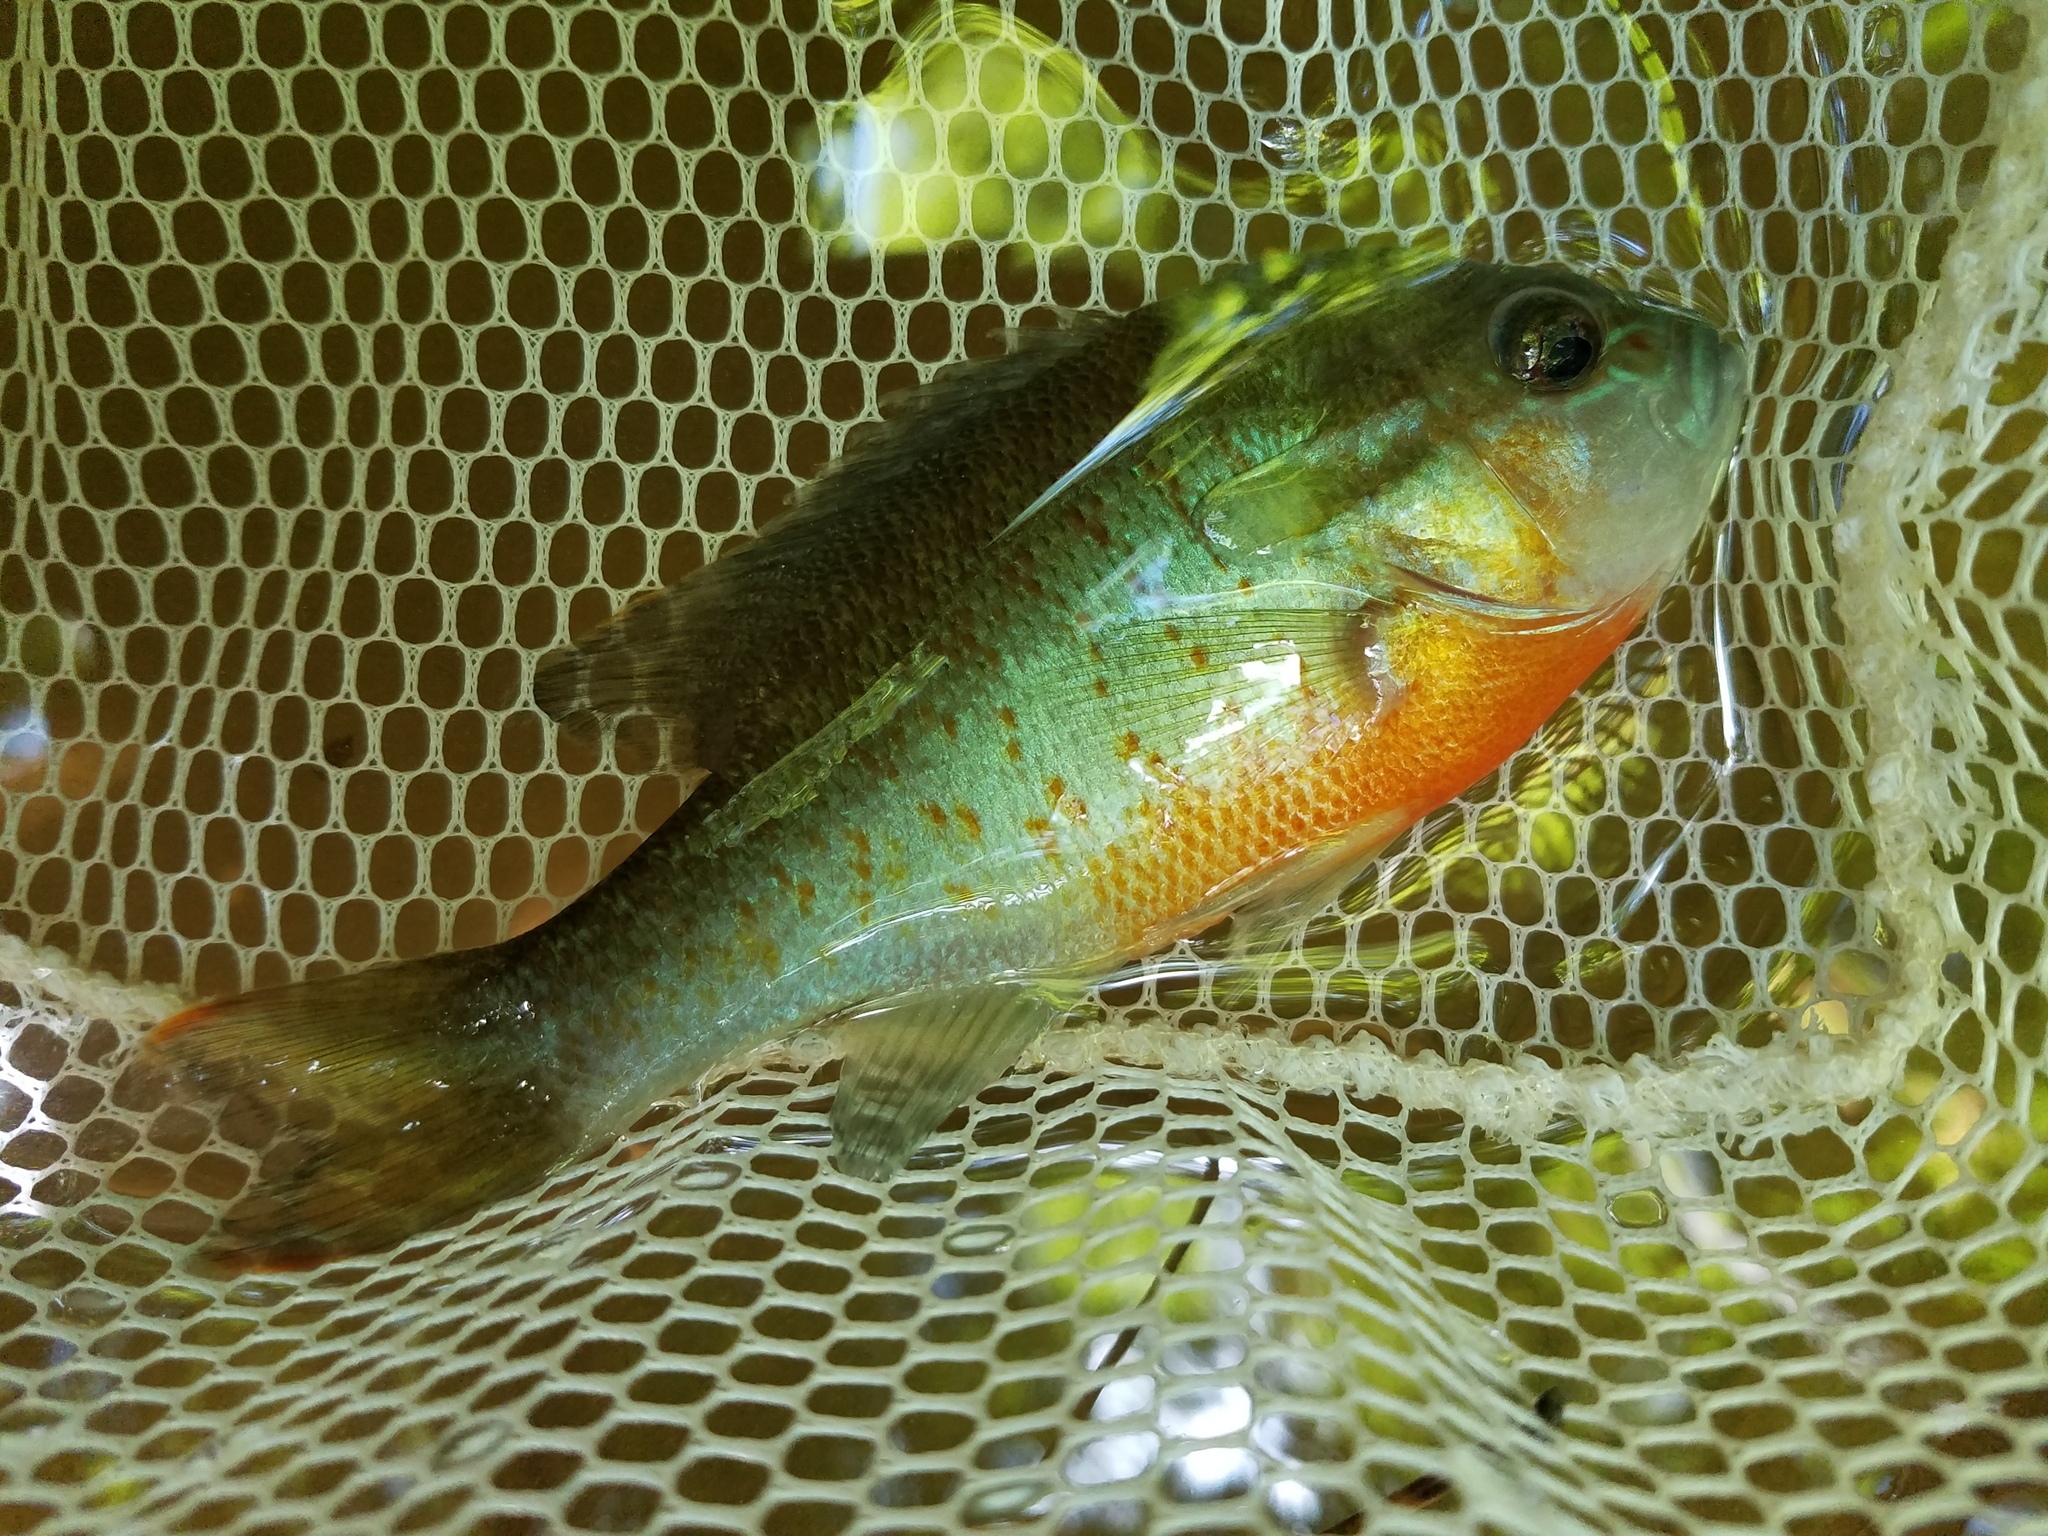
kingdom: Animalia
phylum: Chordata
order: Perciformes
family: Centrarchidae
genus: Lepomis
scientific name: Lepomis auritus
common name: Redbreast sunfish
